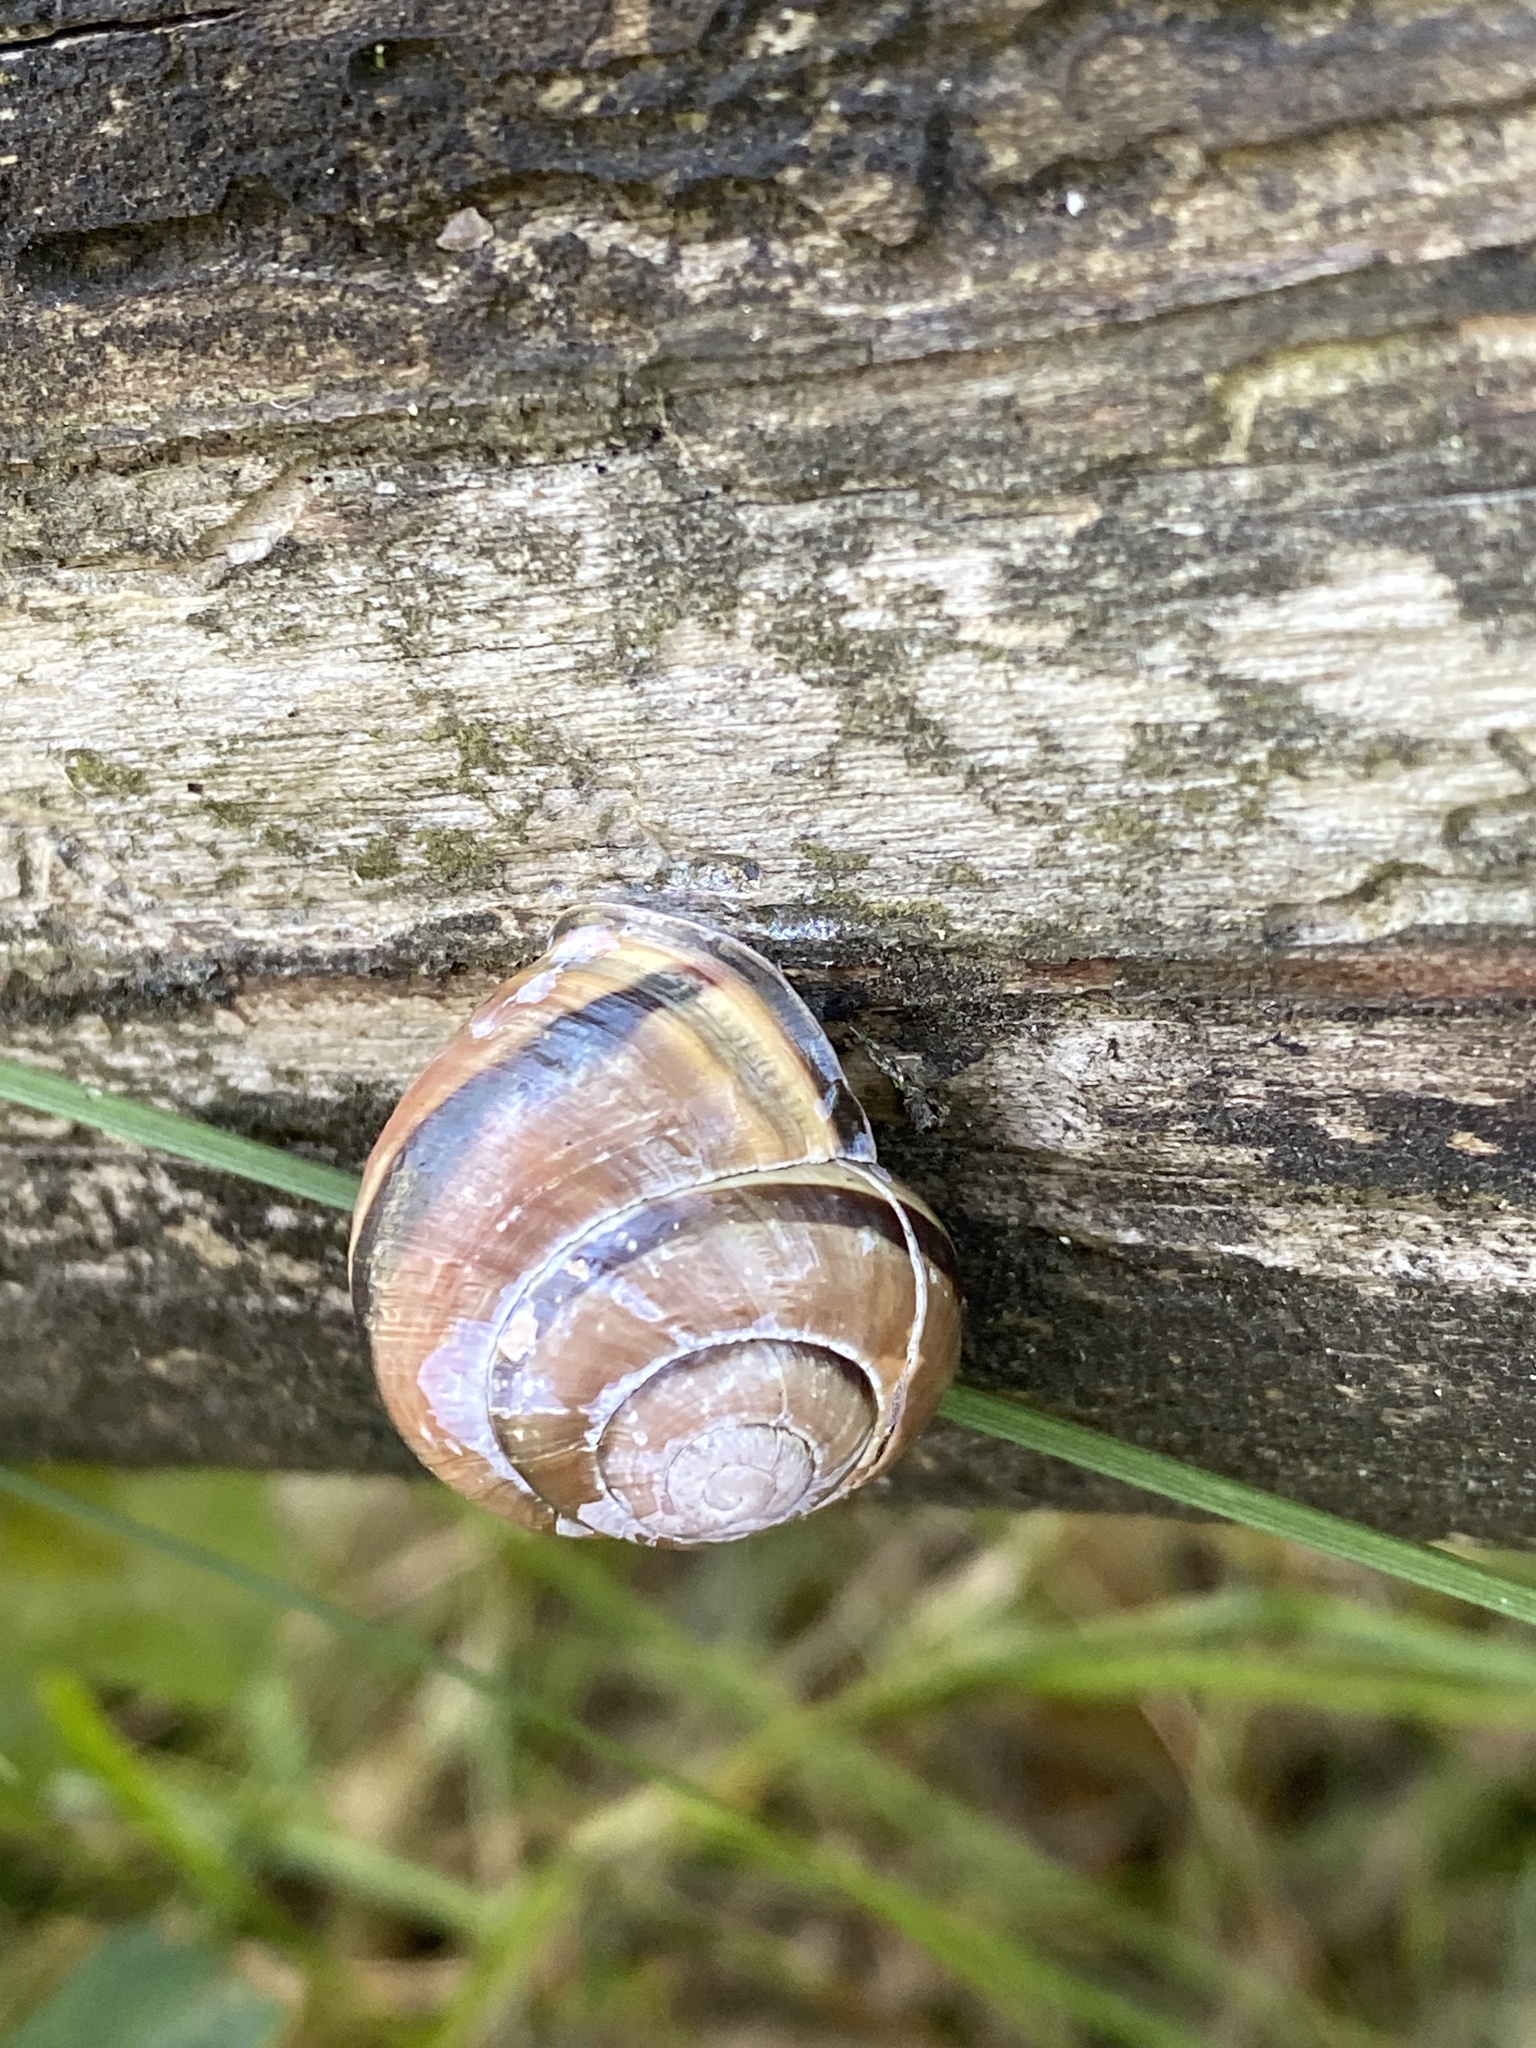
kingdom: Animalia
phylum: Mollusca
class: Gastropoda
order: Stylommatophora
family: Helicidae
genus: Cepaea
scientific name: Cepaea nemoralis
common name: Grovesnail
